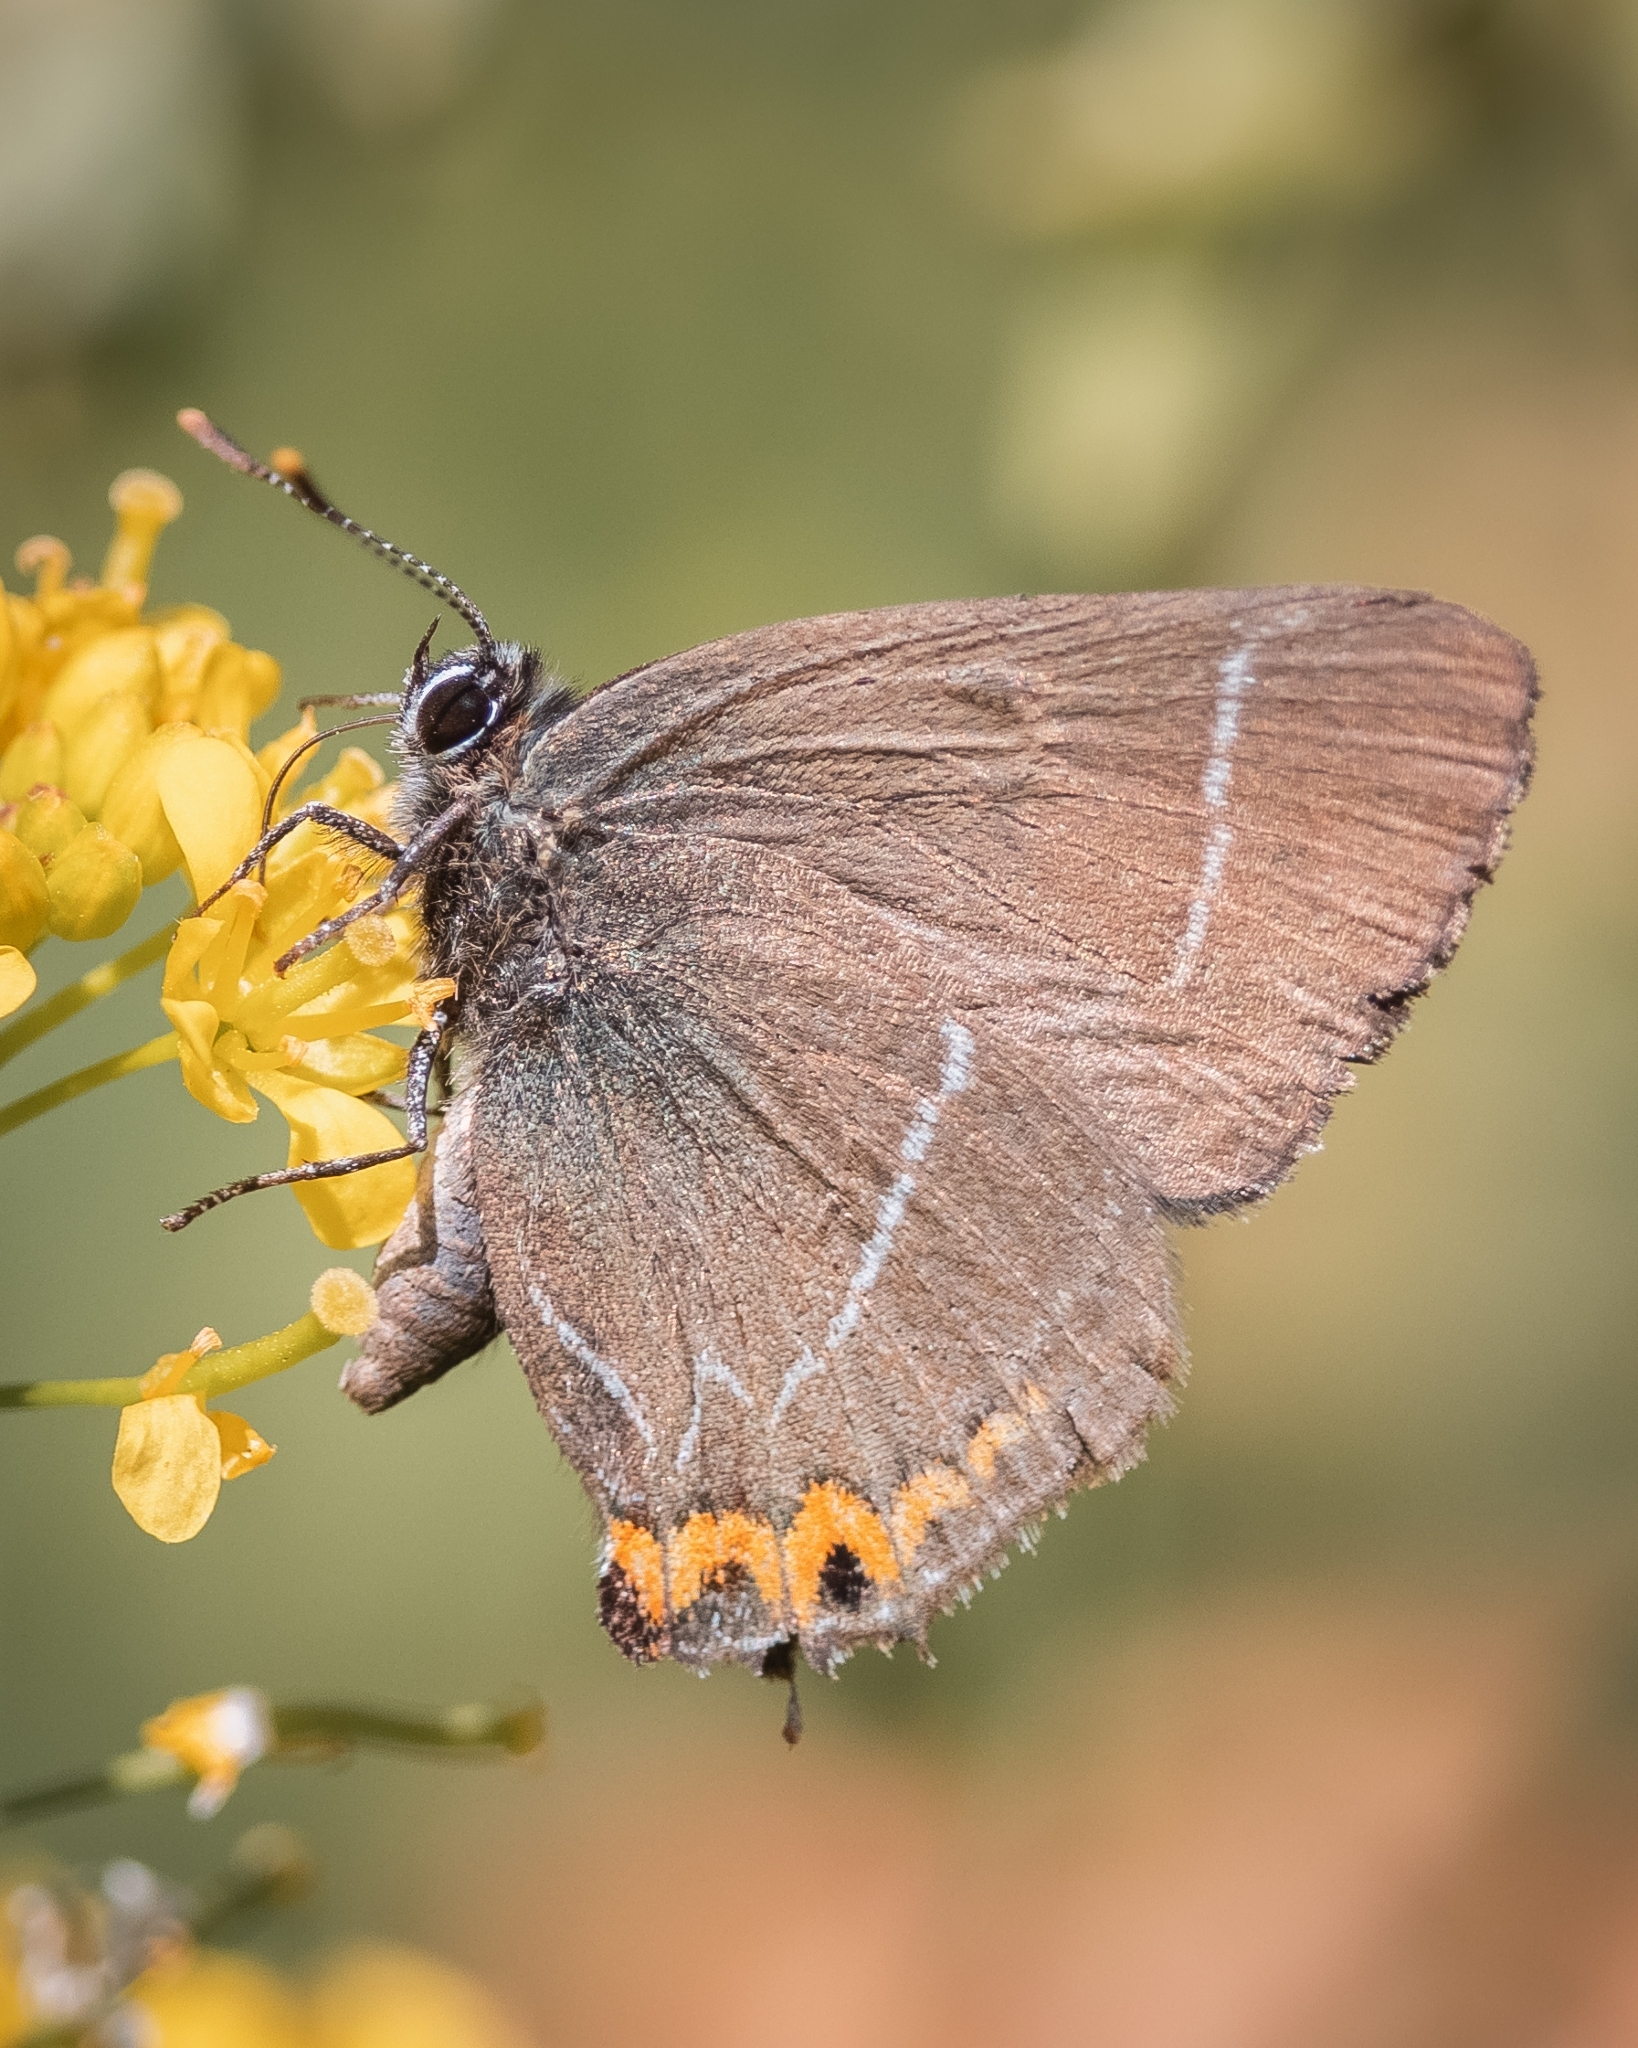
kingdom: Animalia
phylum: Arthropoda
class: Insecta
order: Lepidoptera
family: Lycaenidae
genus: Satyrium
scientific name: Satyrium w-album
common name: White-letter hairstreak
